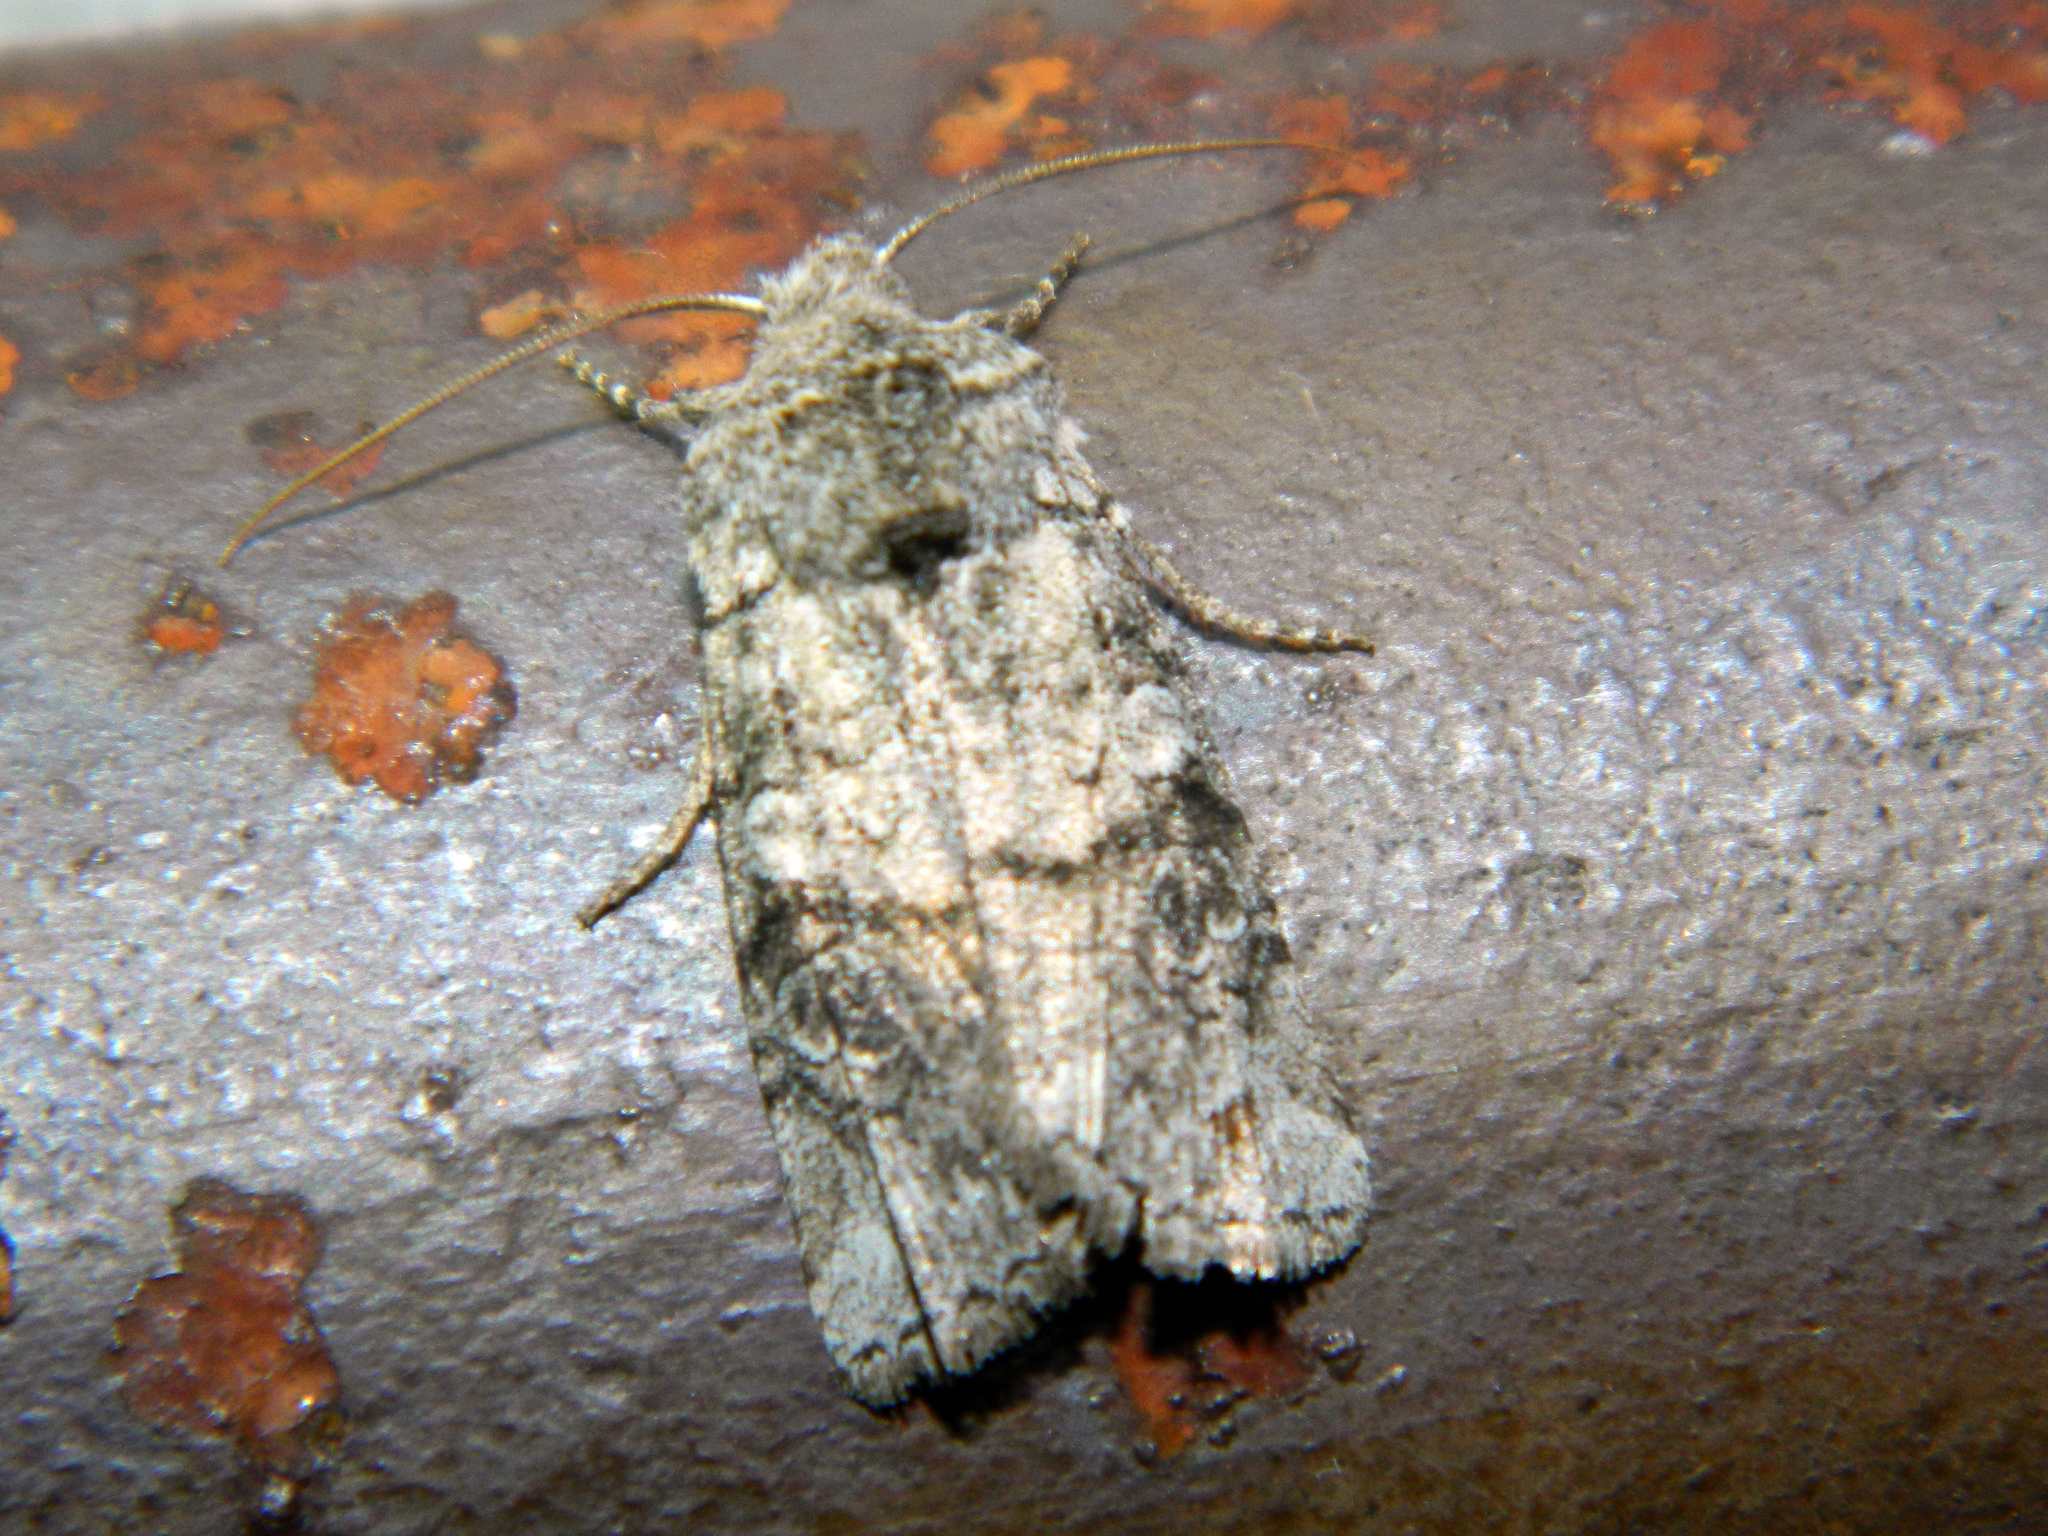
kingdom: Animalia
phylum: Arthropoda
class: Insecta
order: Lepidoptera
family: Noctuidae
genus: Litholomia
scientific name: Litholomia napaea
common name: False pinion moth
